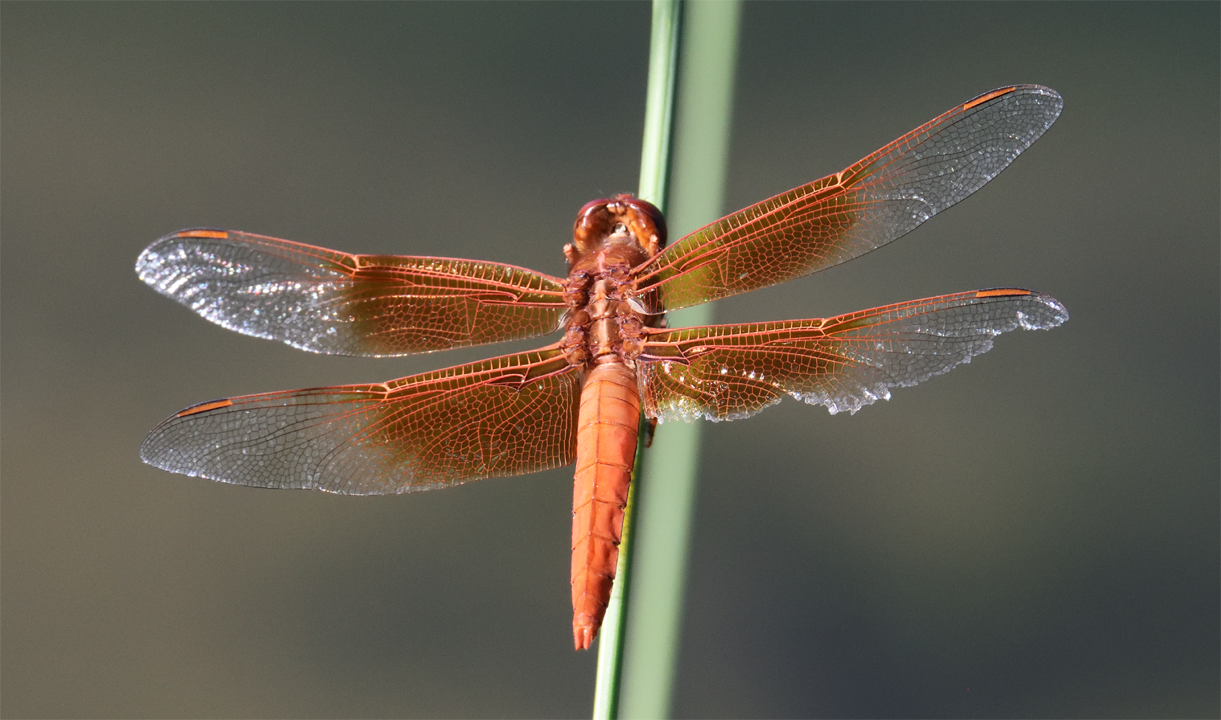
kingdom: Animalia
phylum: Arthropoda
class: Insecta
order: Odonata
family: Libellulidae
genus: Libellula
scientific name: Libellula saturata
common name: Flame skimmer
